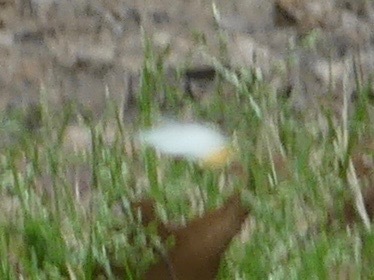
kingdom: Animalia
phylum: Arthropoda
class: Insecta
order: Lepidoptera
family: Pieridae
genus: Anthocharis
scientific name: Anthocharis midea
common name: Falcate orangetip
